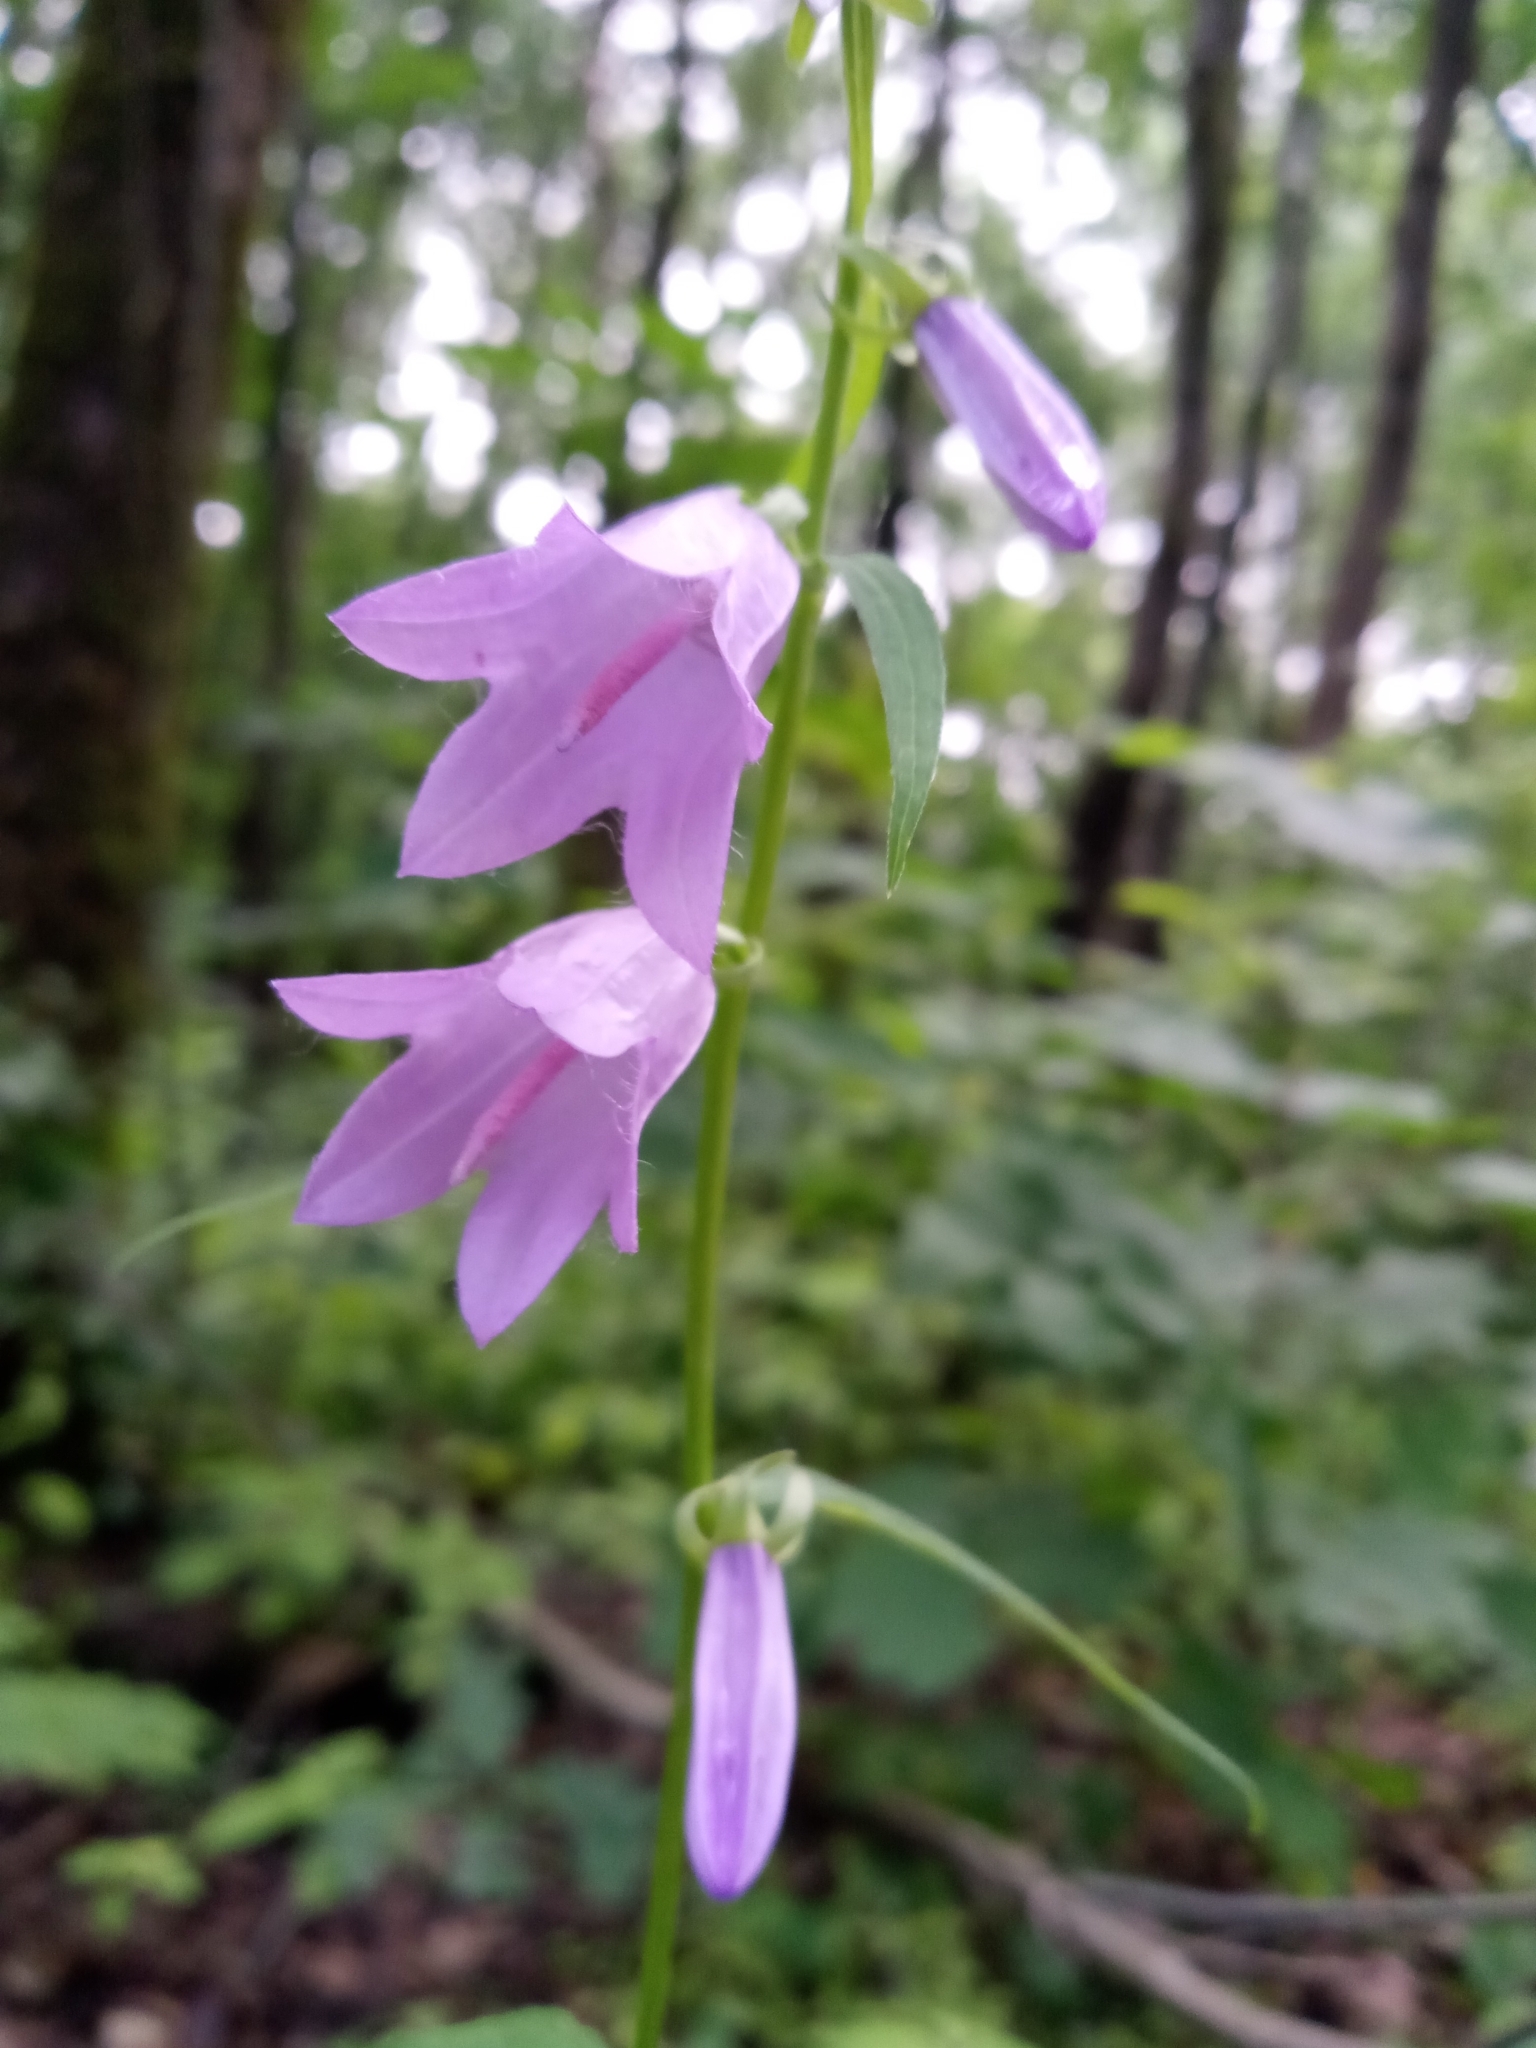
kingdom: Plantae
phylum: Tracheophyta
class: Magnoliopsida
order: Asterales
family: Campanulaceae
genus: Campanula
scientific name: Campanula rapunculoides
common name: Creeping bellflower
